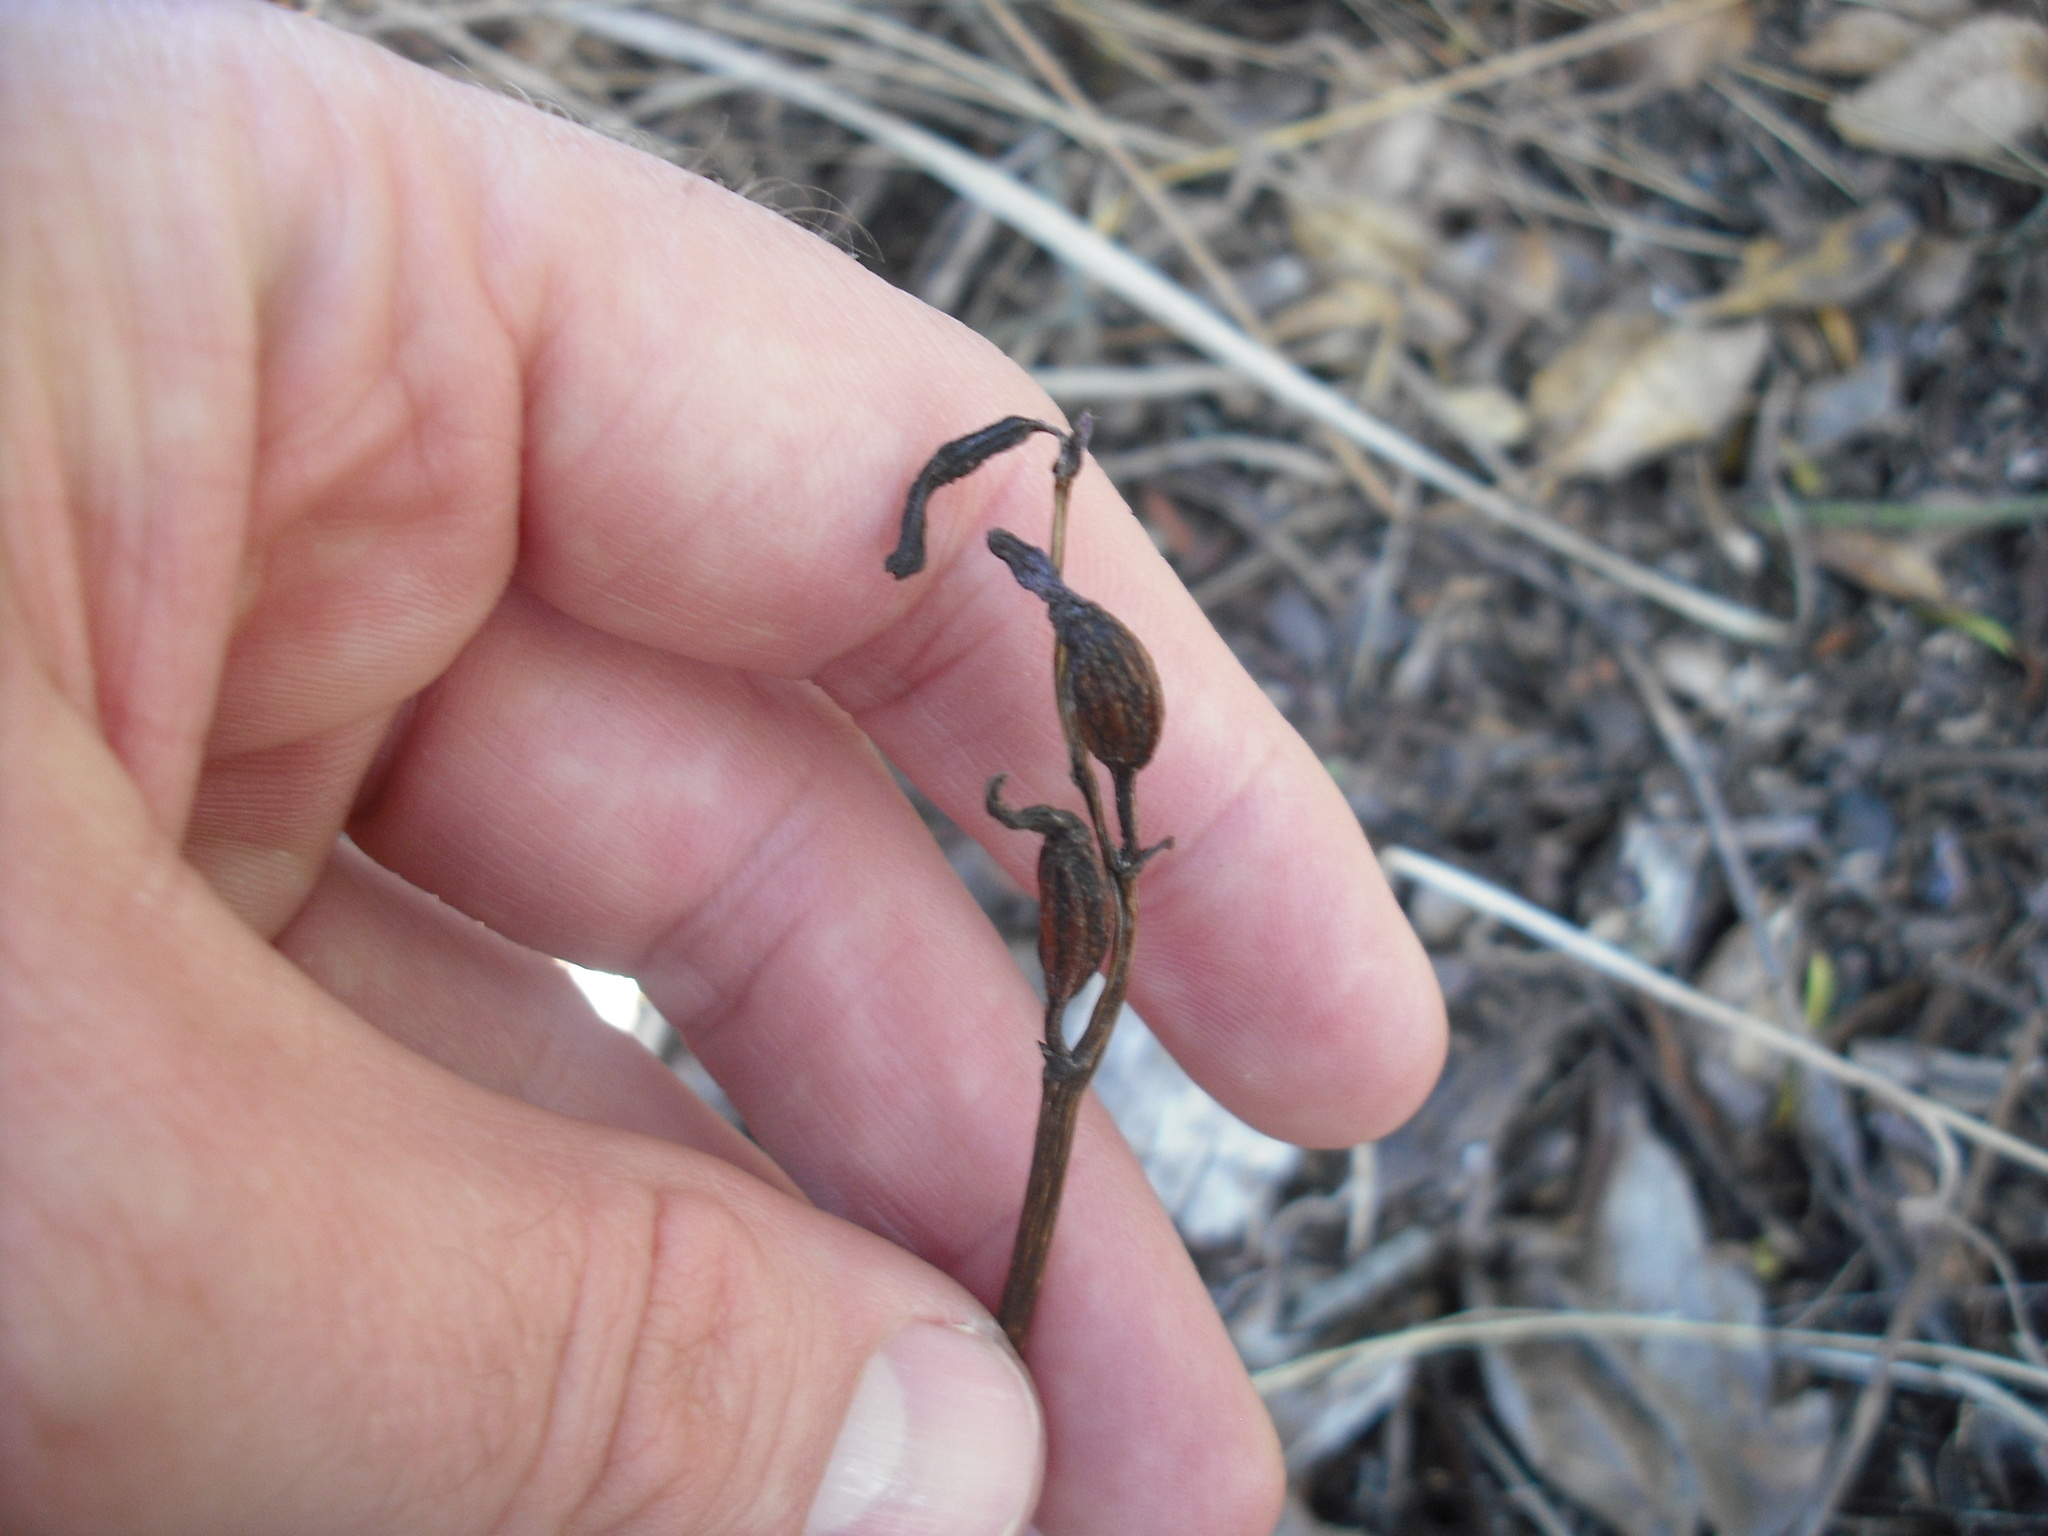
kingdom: Plantae
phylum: Tracheophyta
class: Liliopsida
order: Asparagales
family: Orchidaceae
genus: Gastrodia
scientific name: Gastrodia minor
